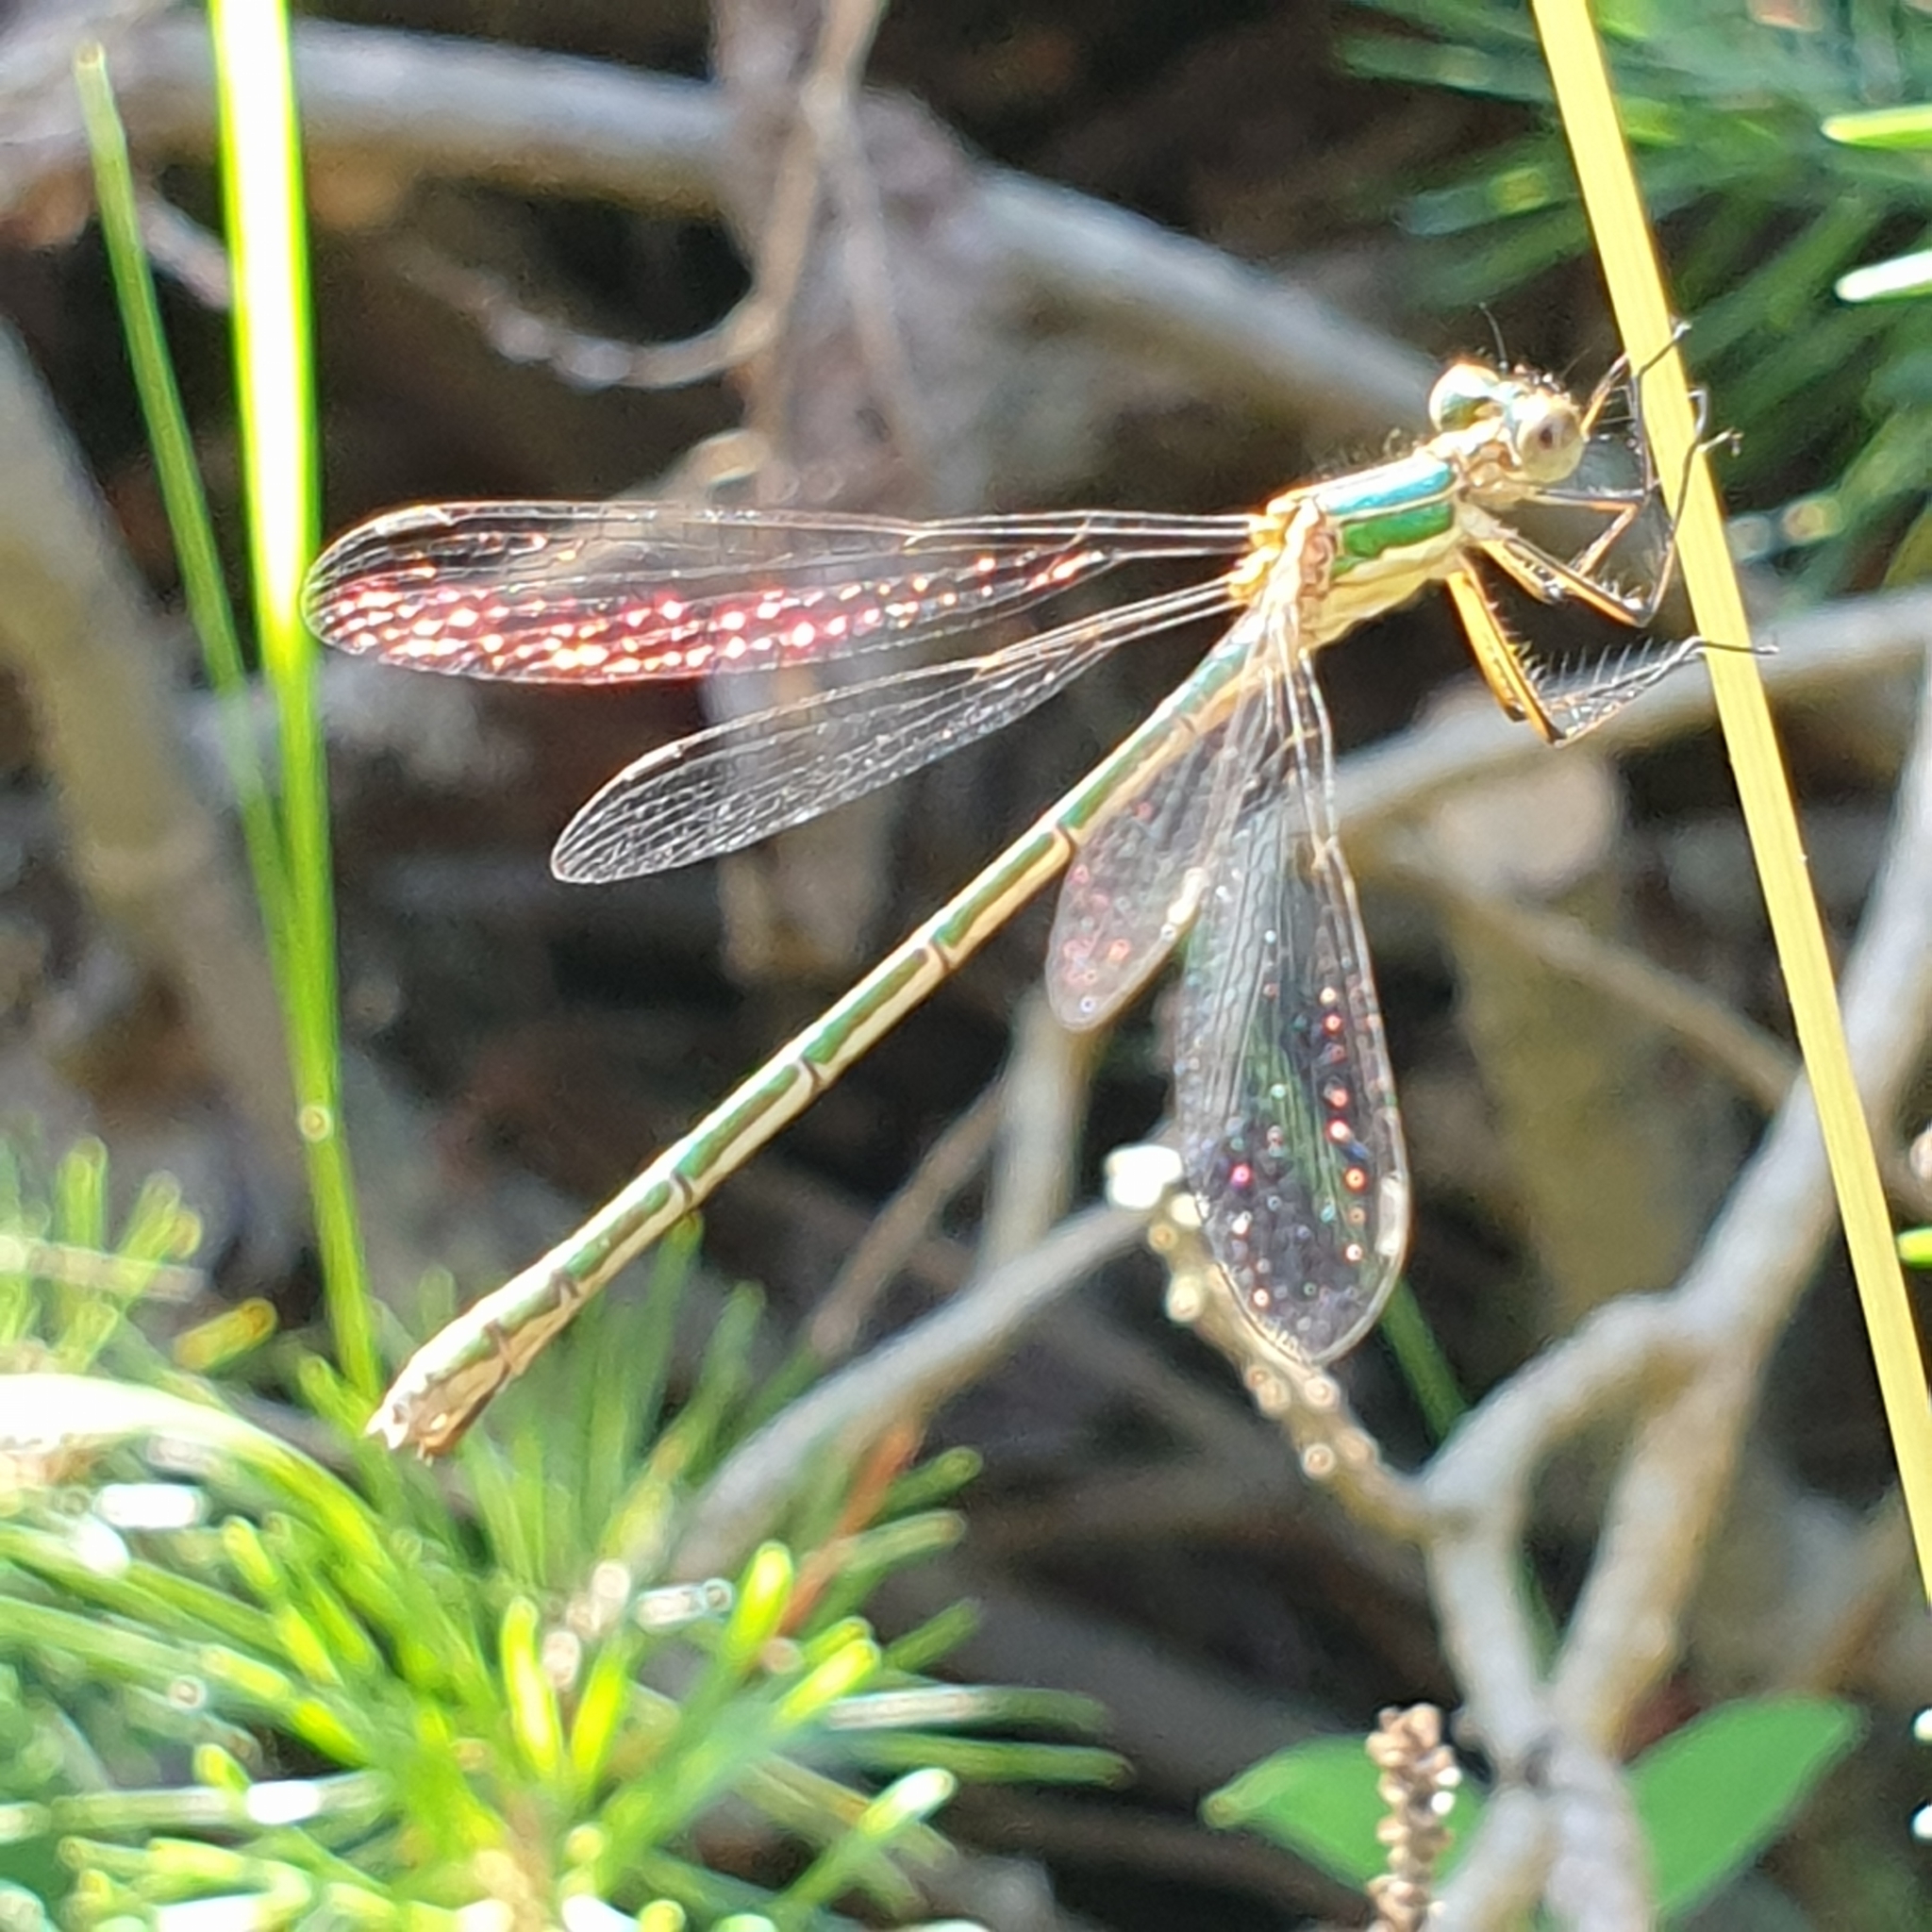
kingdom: Animalia
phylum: Arthropoda
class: Insecta
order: Odonata
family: Lestidae
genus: Lestes
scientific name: Lestes sponsa
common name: Common spreadwing
